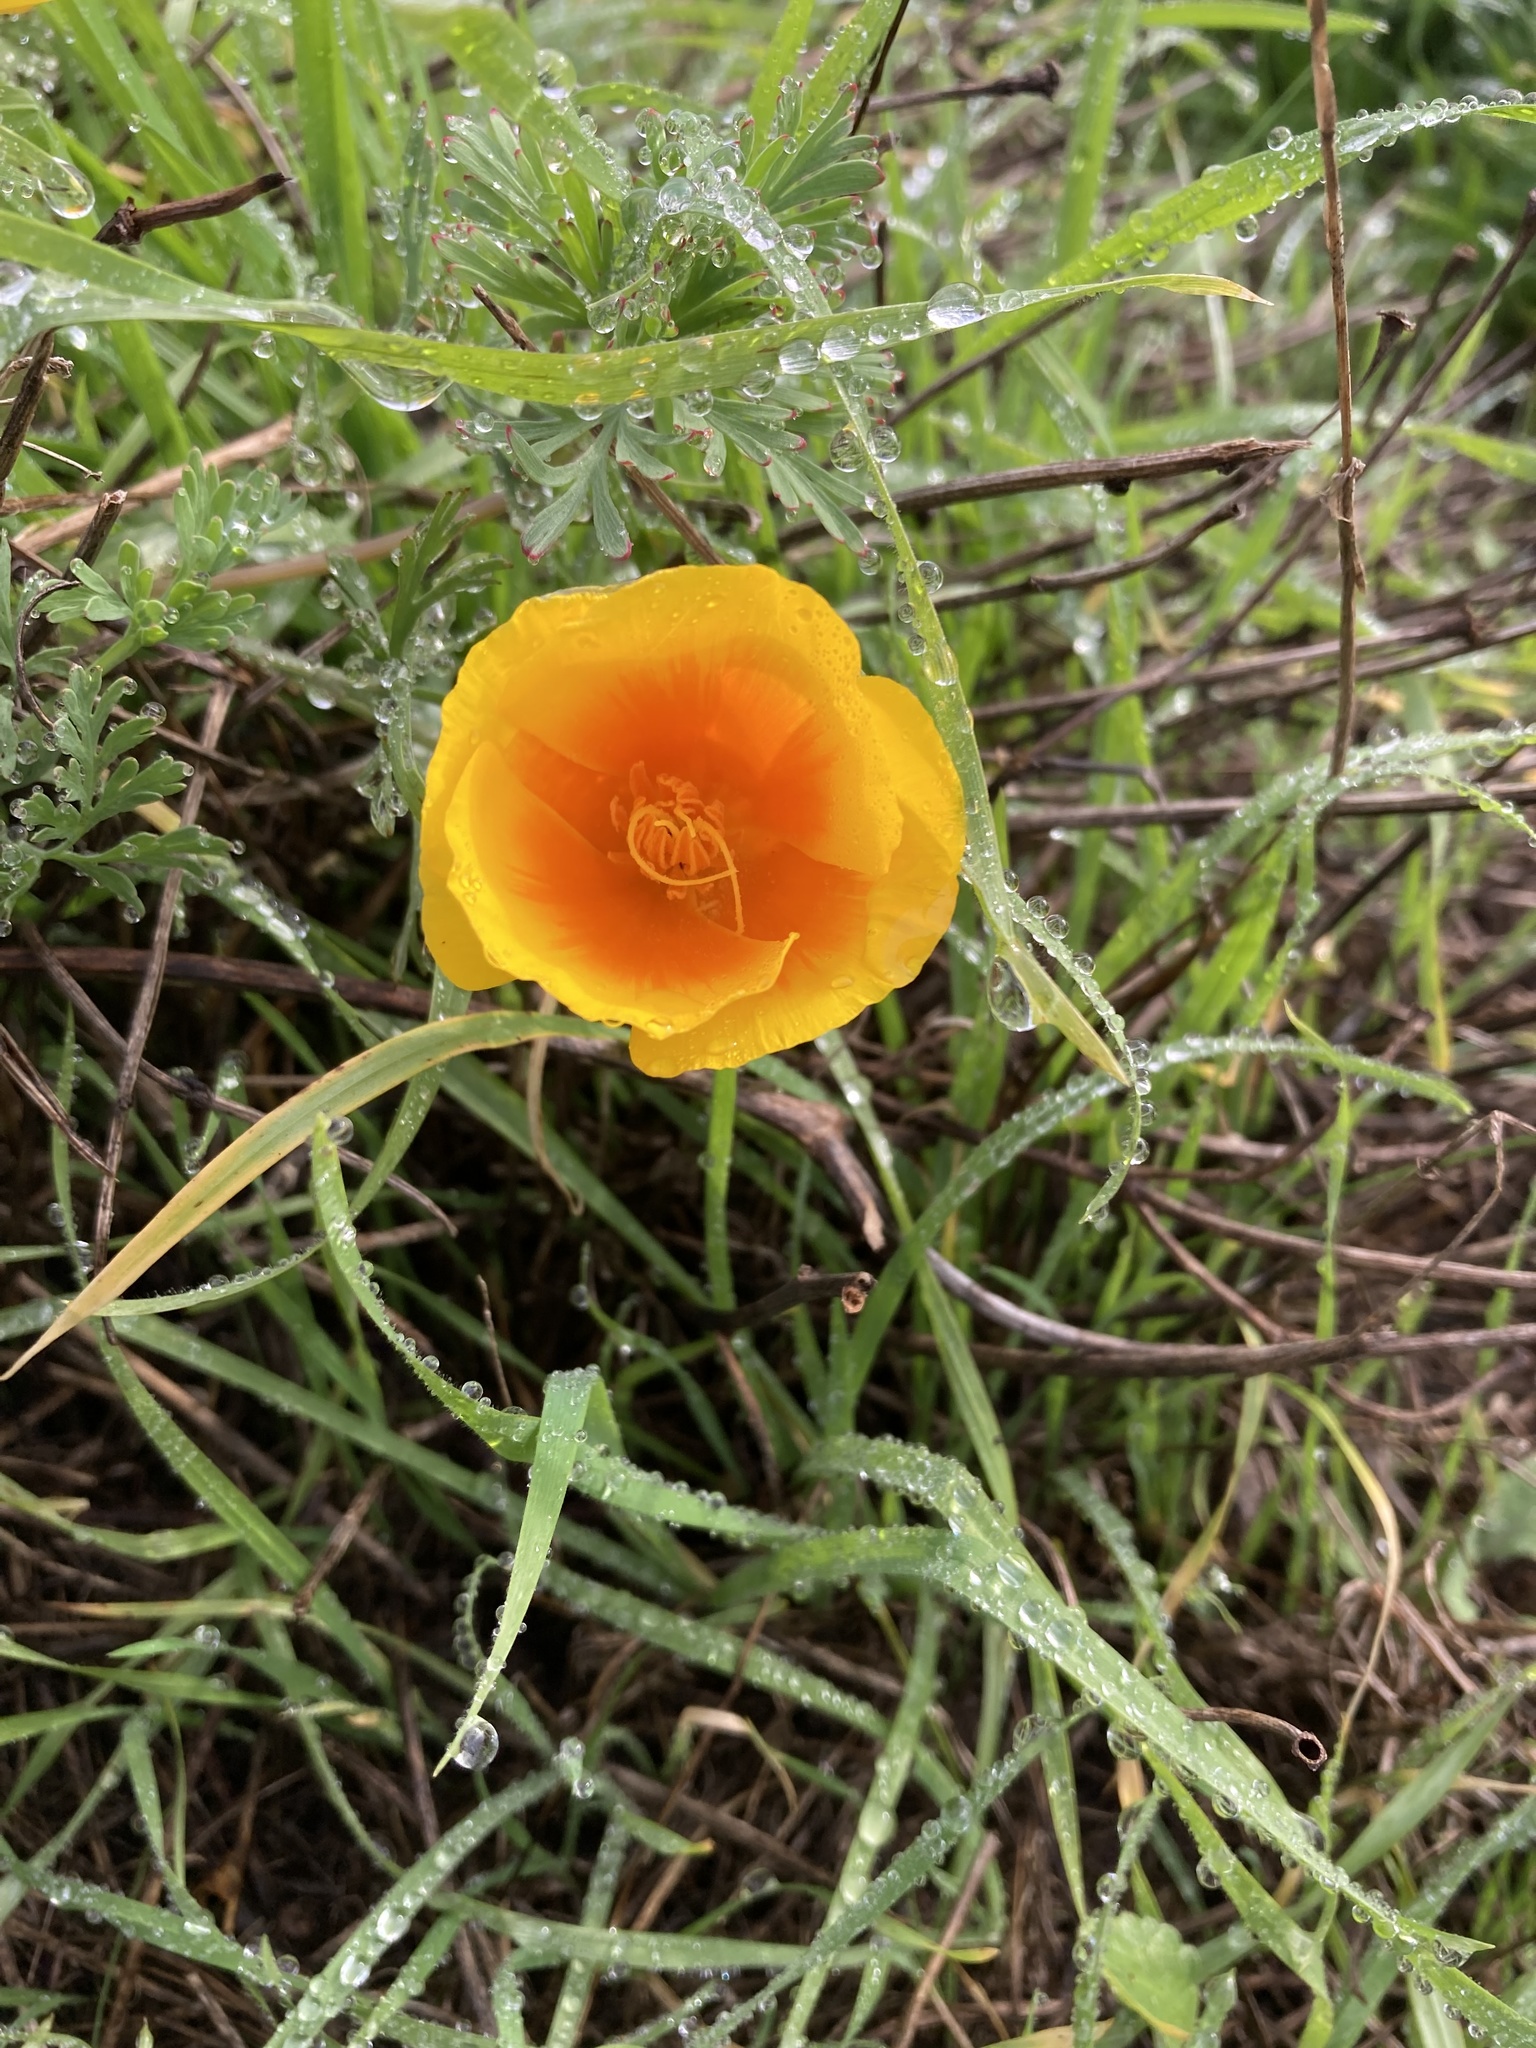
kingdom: Plantae
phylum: Tracheophyta
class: Magnoliopsida
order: Ranunculales
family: Papaveraceae
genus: Eschscholzia
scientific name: Eschscholzia californica
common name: California poppy
